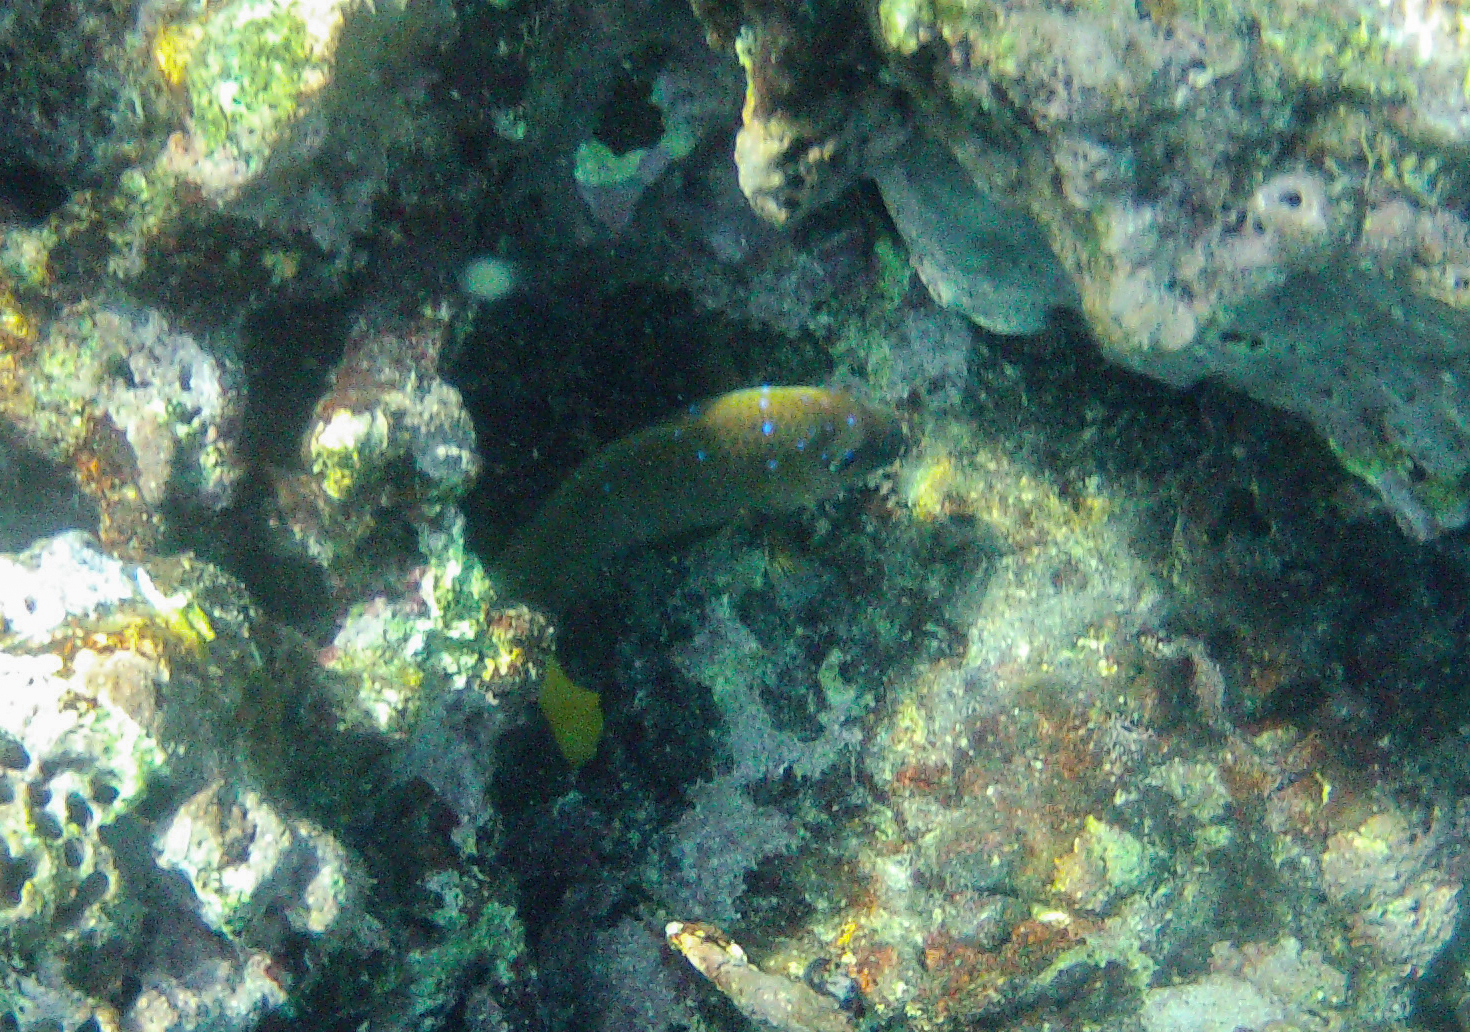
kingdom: Animalia
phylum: Chordata
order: Perciformes
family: Pomacentridae
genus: Microspathodon
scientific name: Microspathodon chrysurus
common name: Yellowtail damselfish
